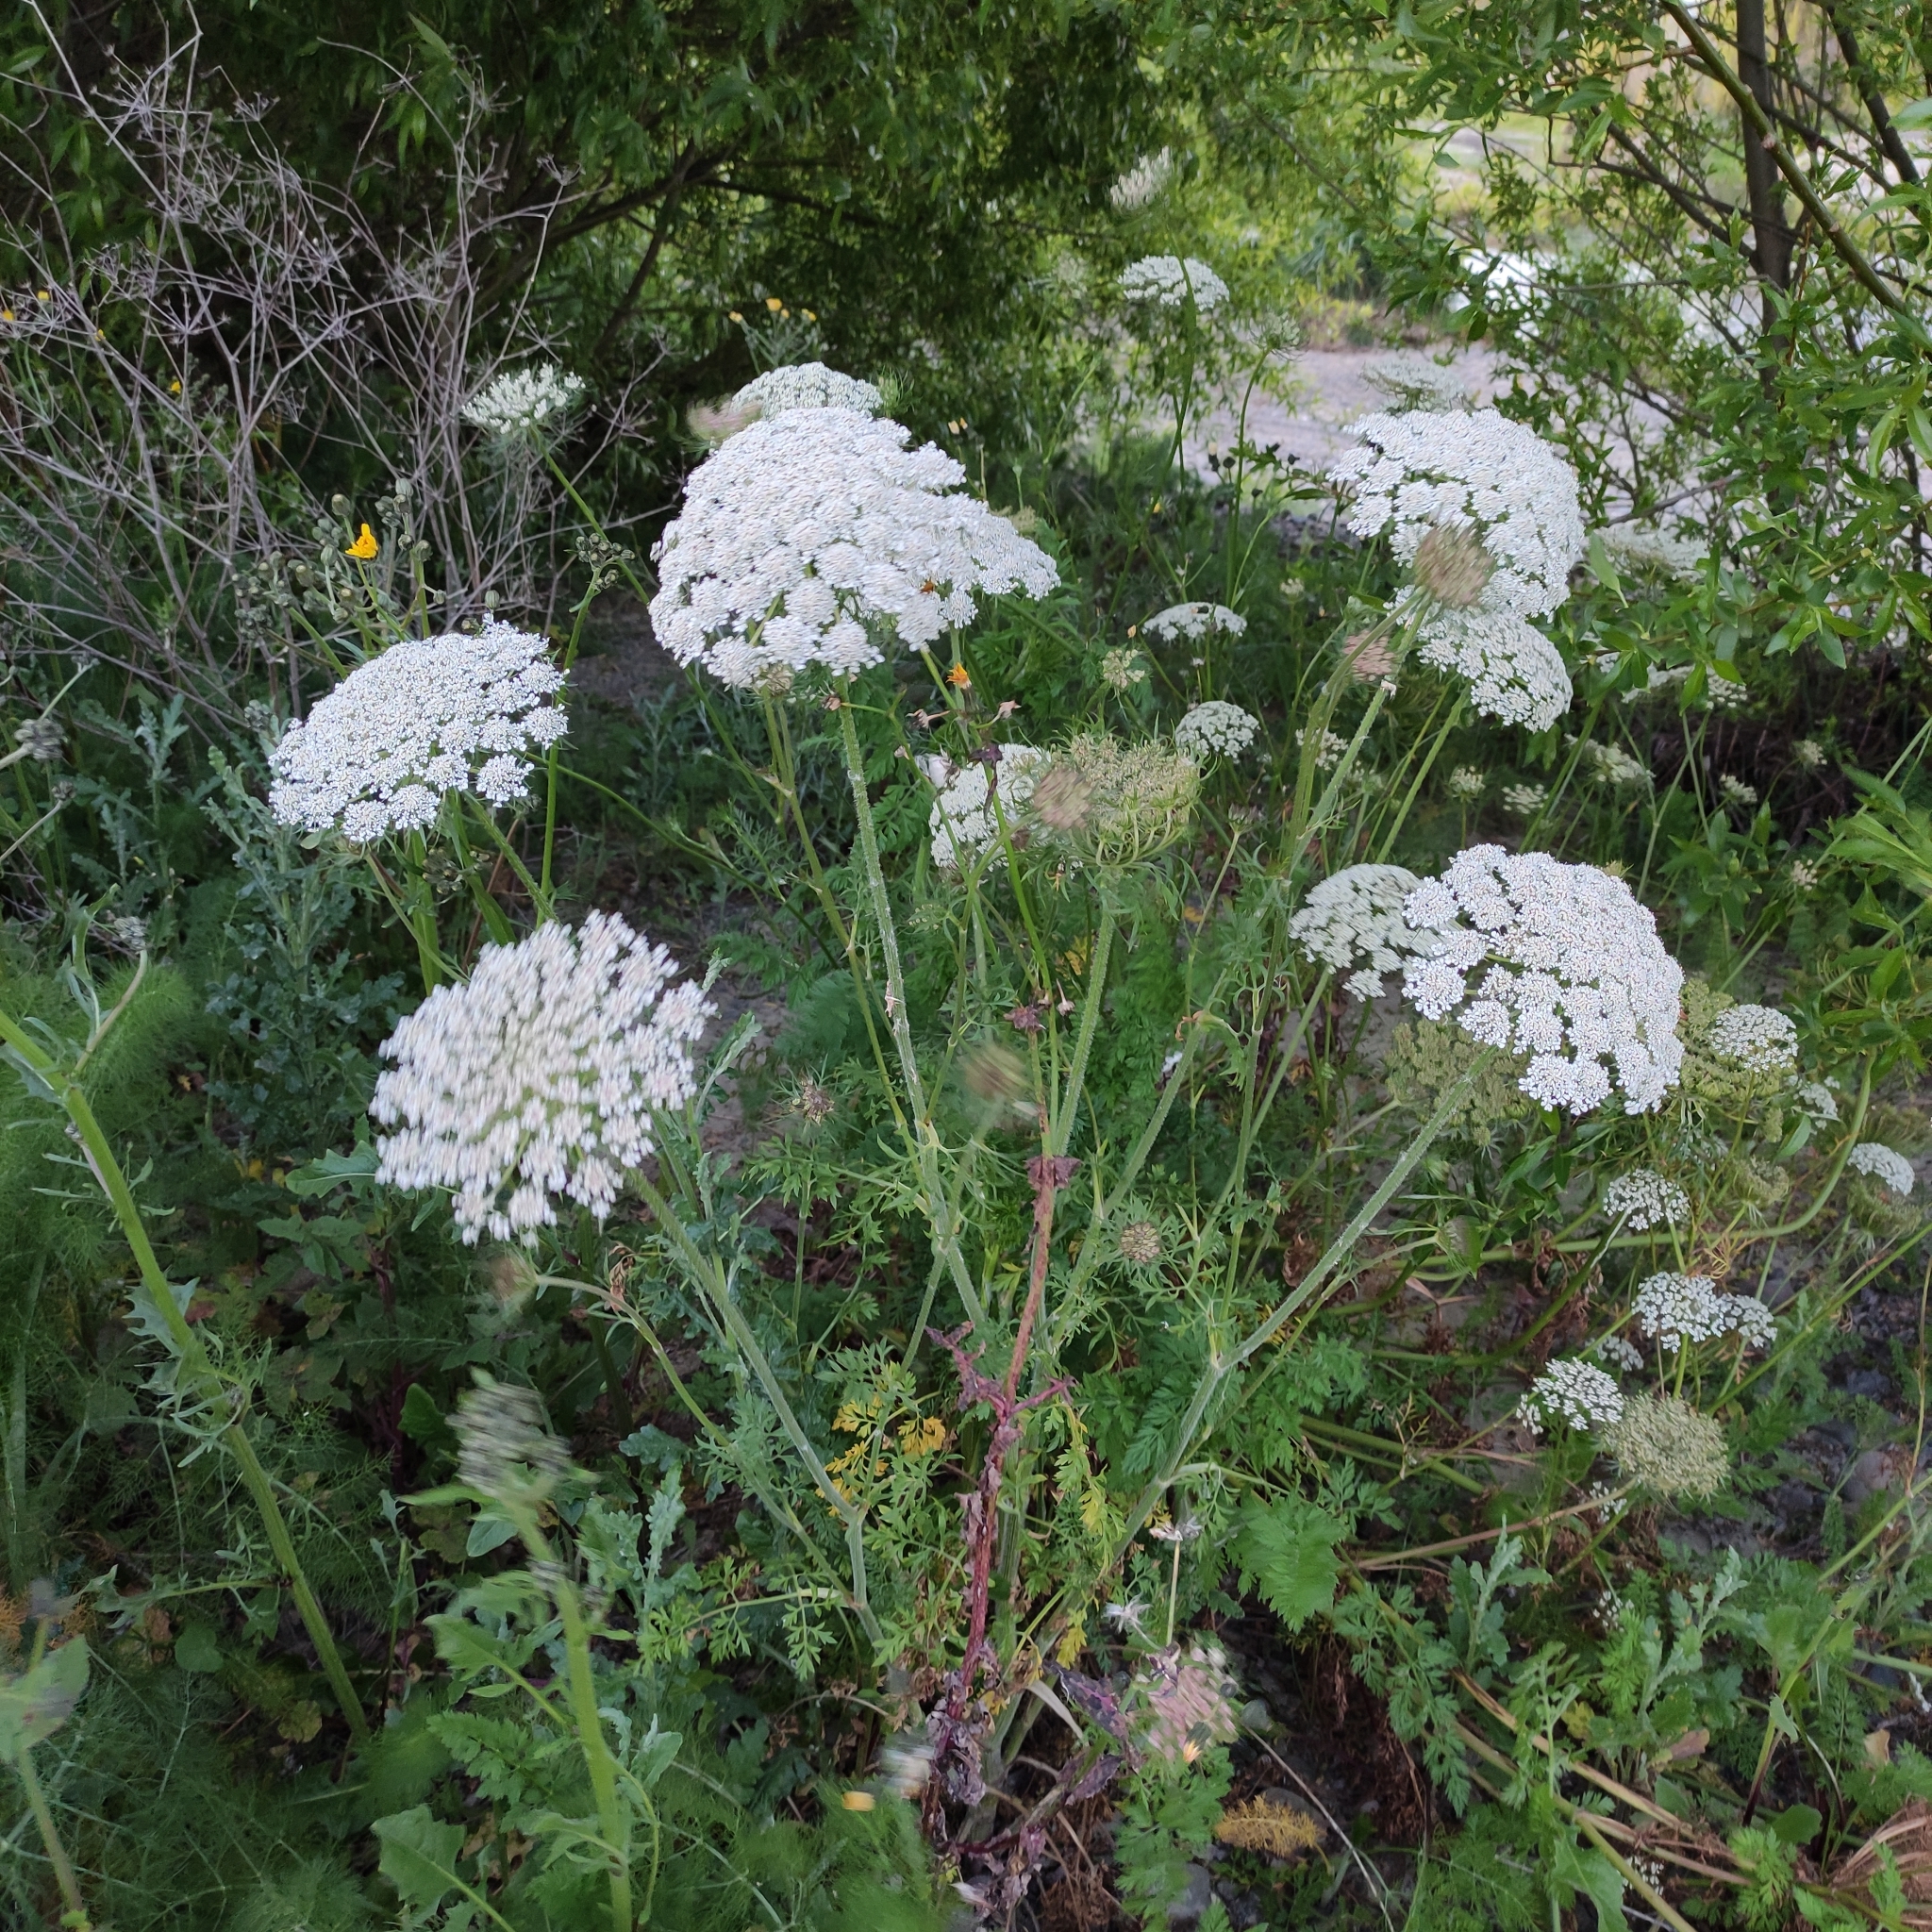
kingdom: Plantae
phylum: Tracheophyta
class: Magnoliopsida
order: Apiales
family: Apiaceae
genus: Daucus
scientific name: Daucus carota
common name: Wild carrot
